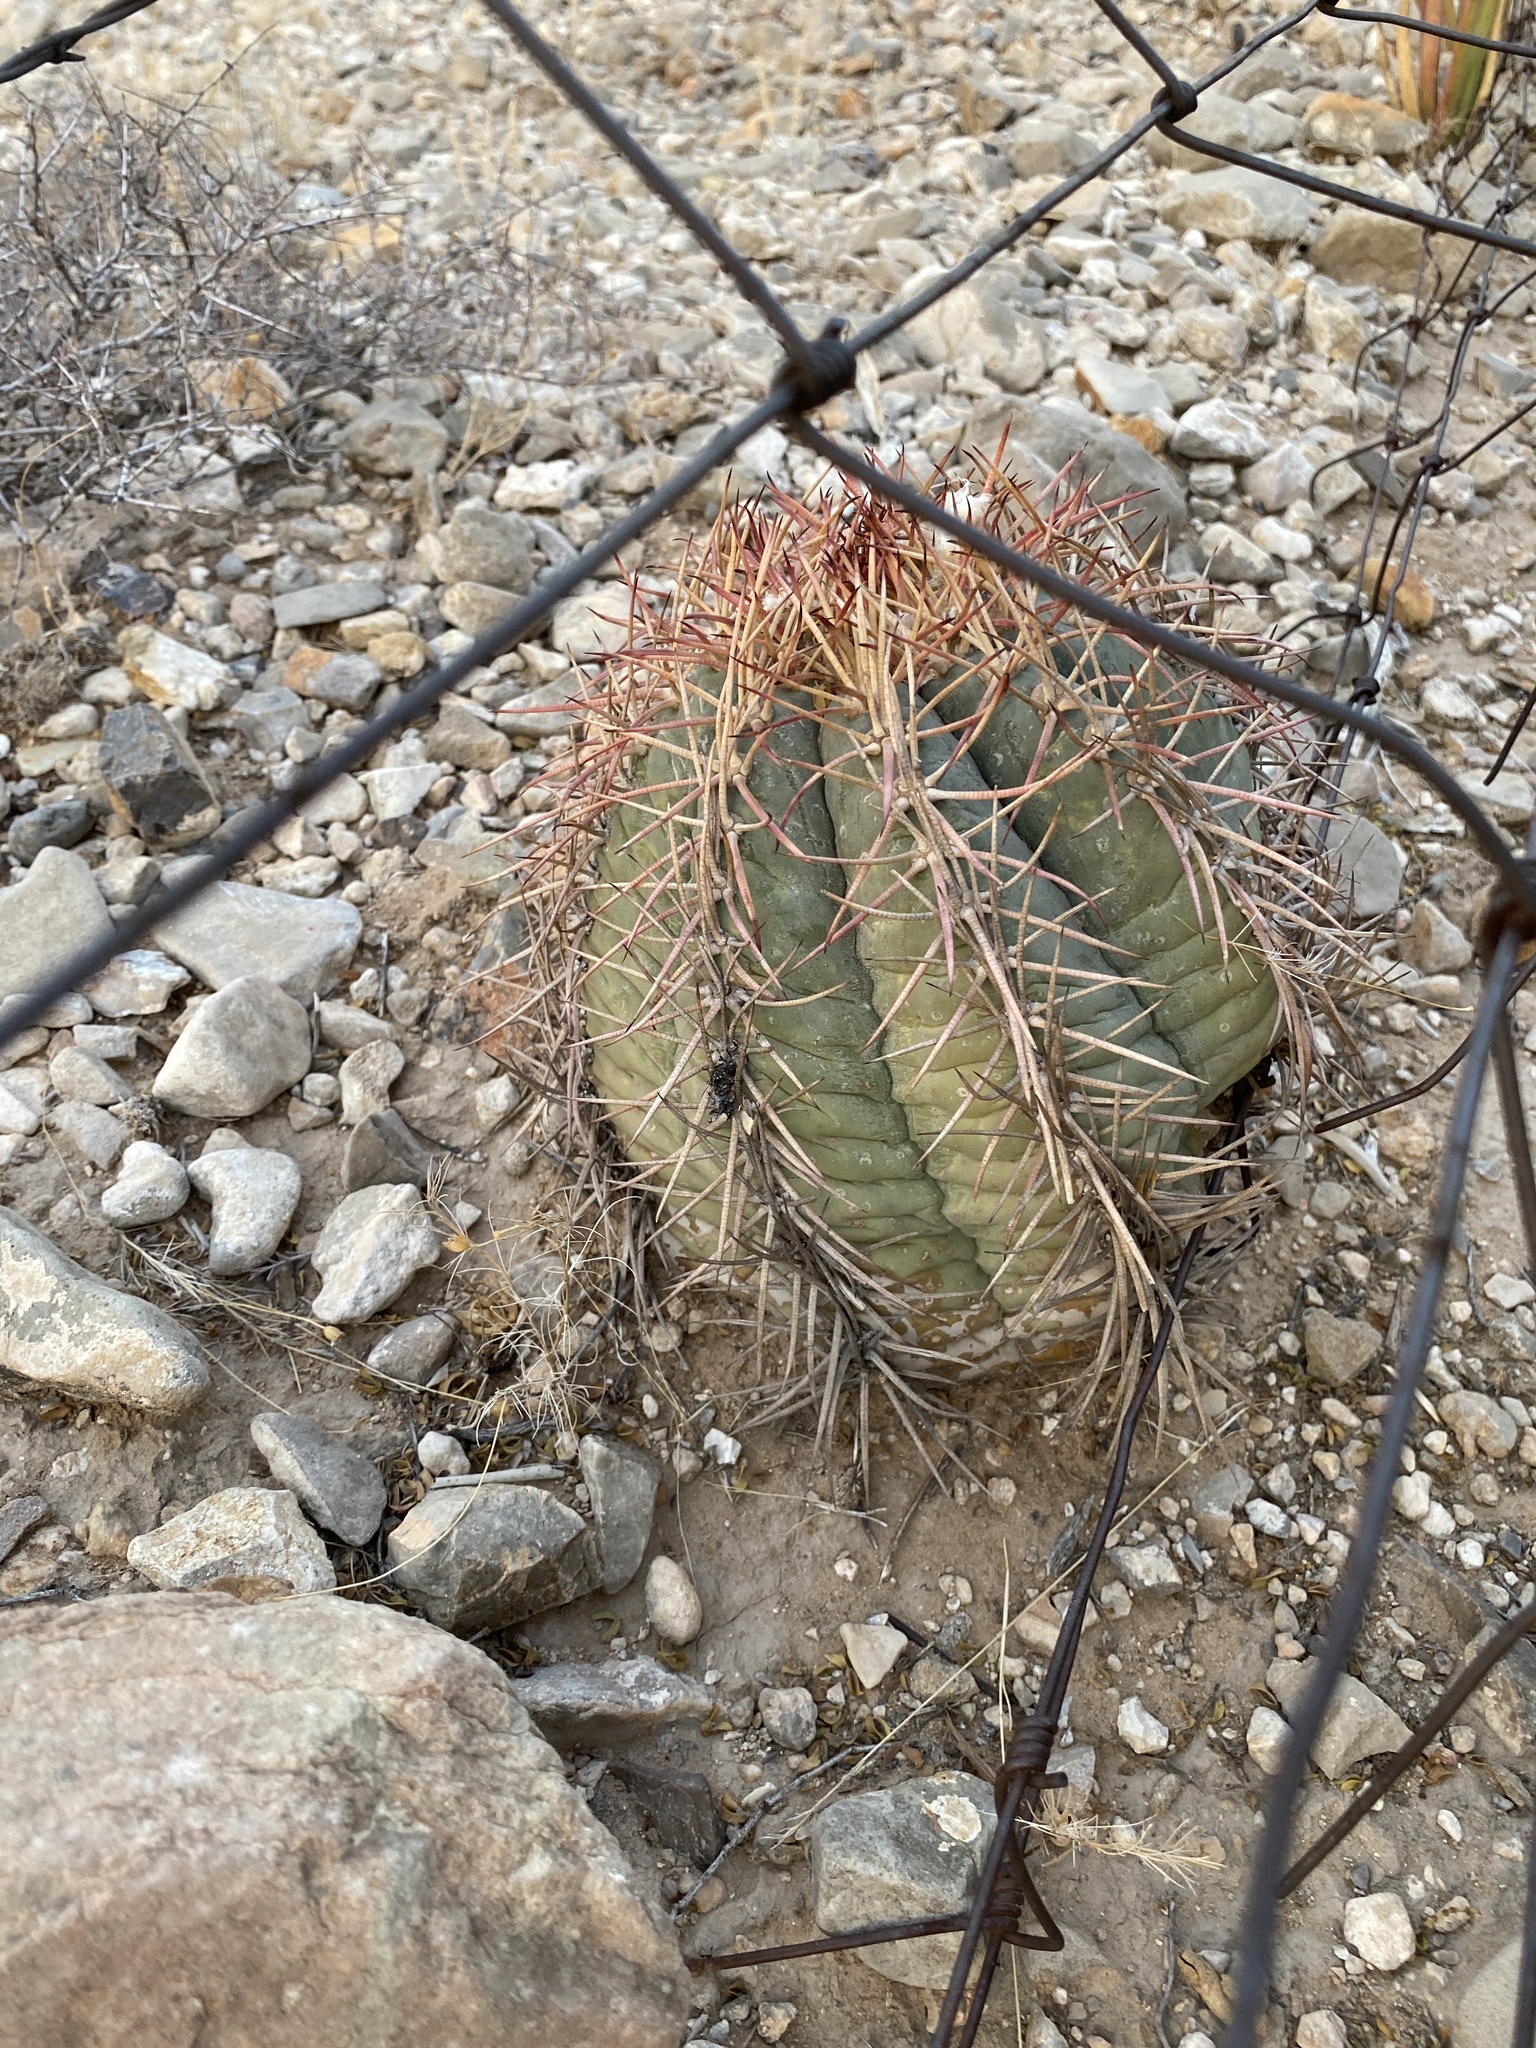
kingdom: Plantae
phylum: Tracheophyta
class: Magnoliopsida
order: Caryophyllales
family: Cactaceae
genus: Echinocactus
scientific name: Echinocactus horizonthalonius
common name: Devilshead
